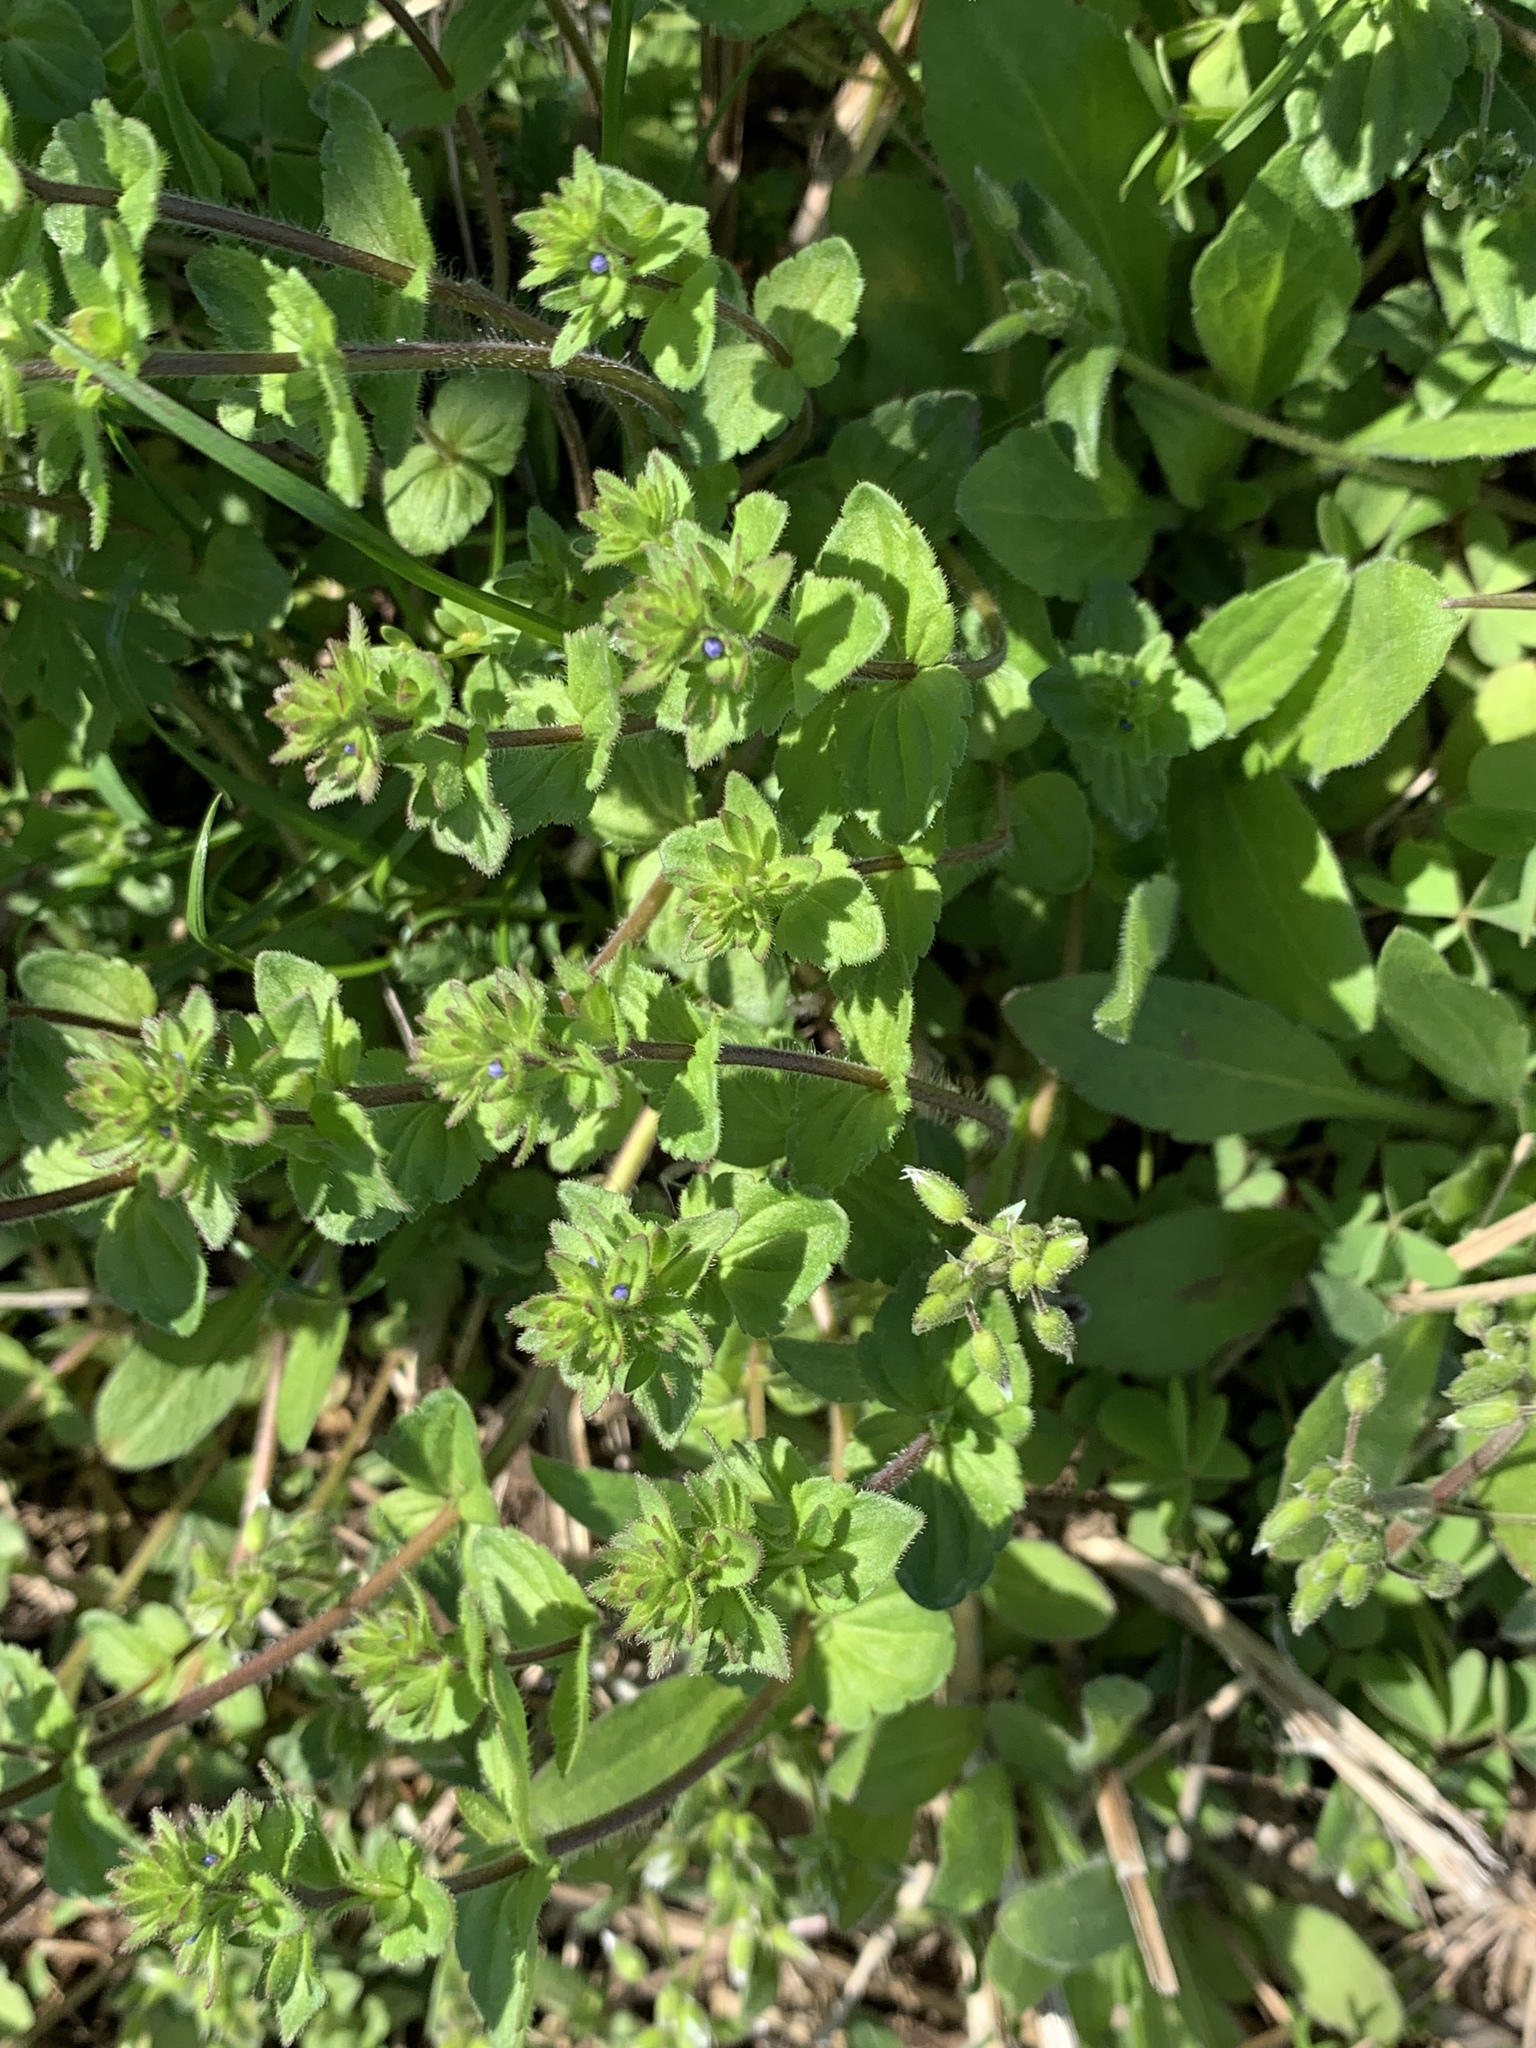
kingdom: Plantae
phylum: Tracheophyta
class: Magnoliopsida
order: Lamiales
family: Plantaginaceae
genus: Veronica
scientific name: Veronica arvensis
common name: Corn speedwell
